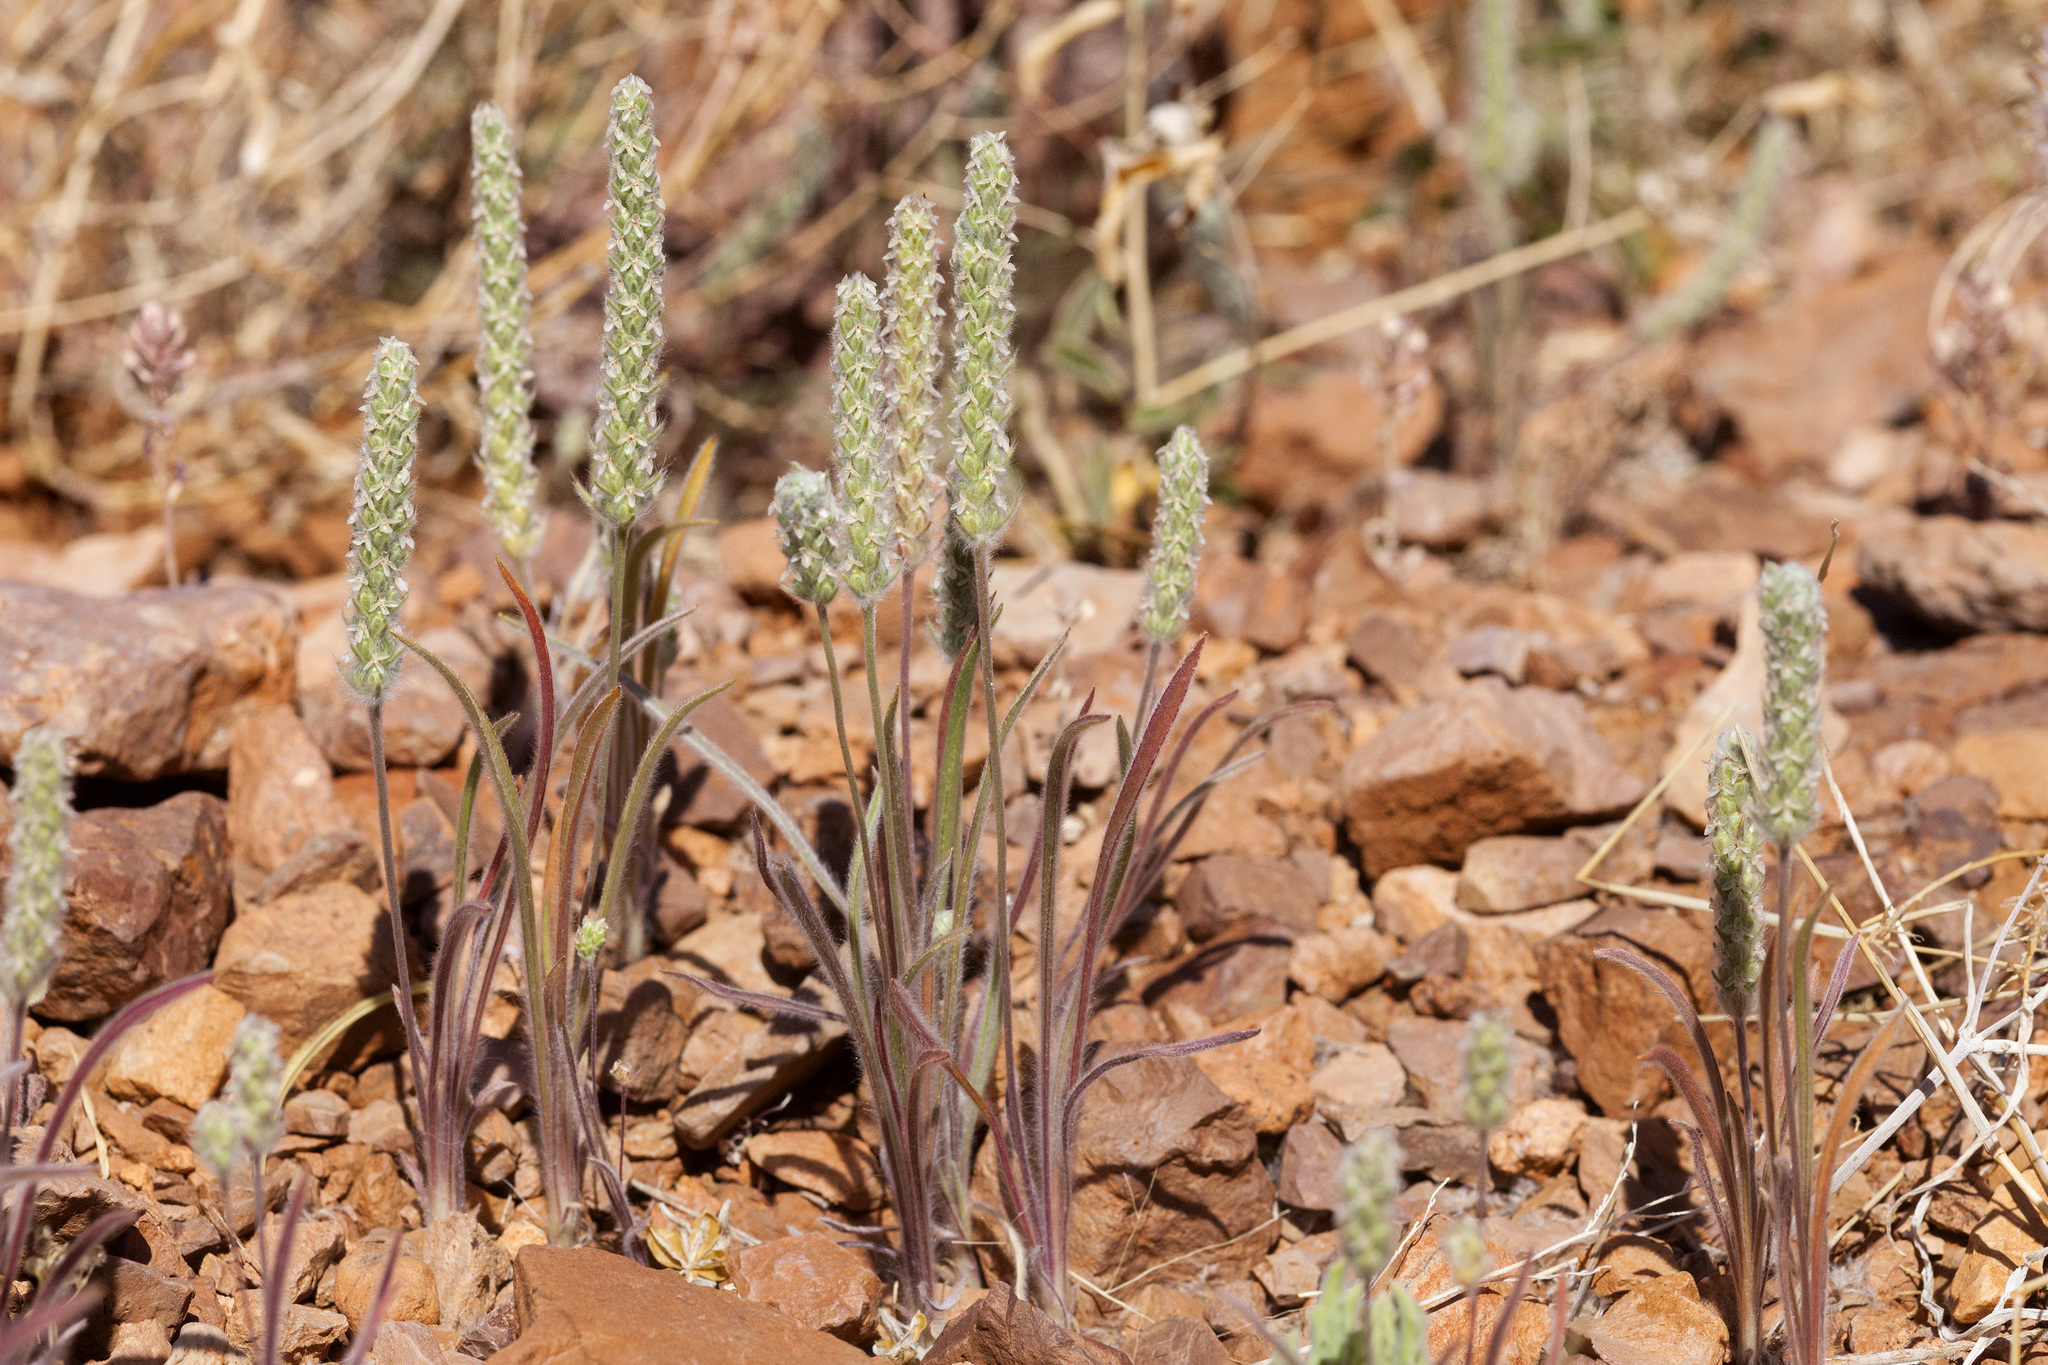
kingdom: Plantae
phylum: Tracheophyta
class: Magnoliopsida
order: Lamiales
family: Plantaginaceae
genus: Plantago
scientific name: Plantago patagonica
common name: Patagonia indian-wheat
